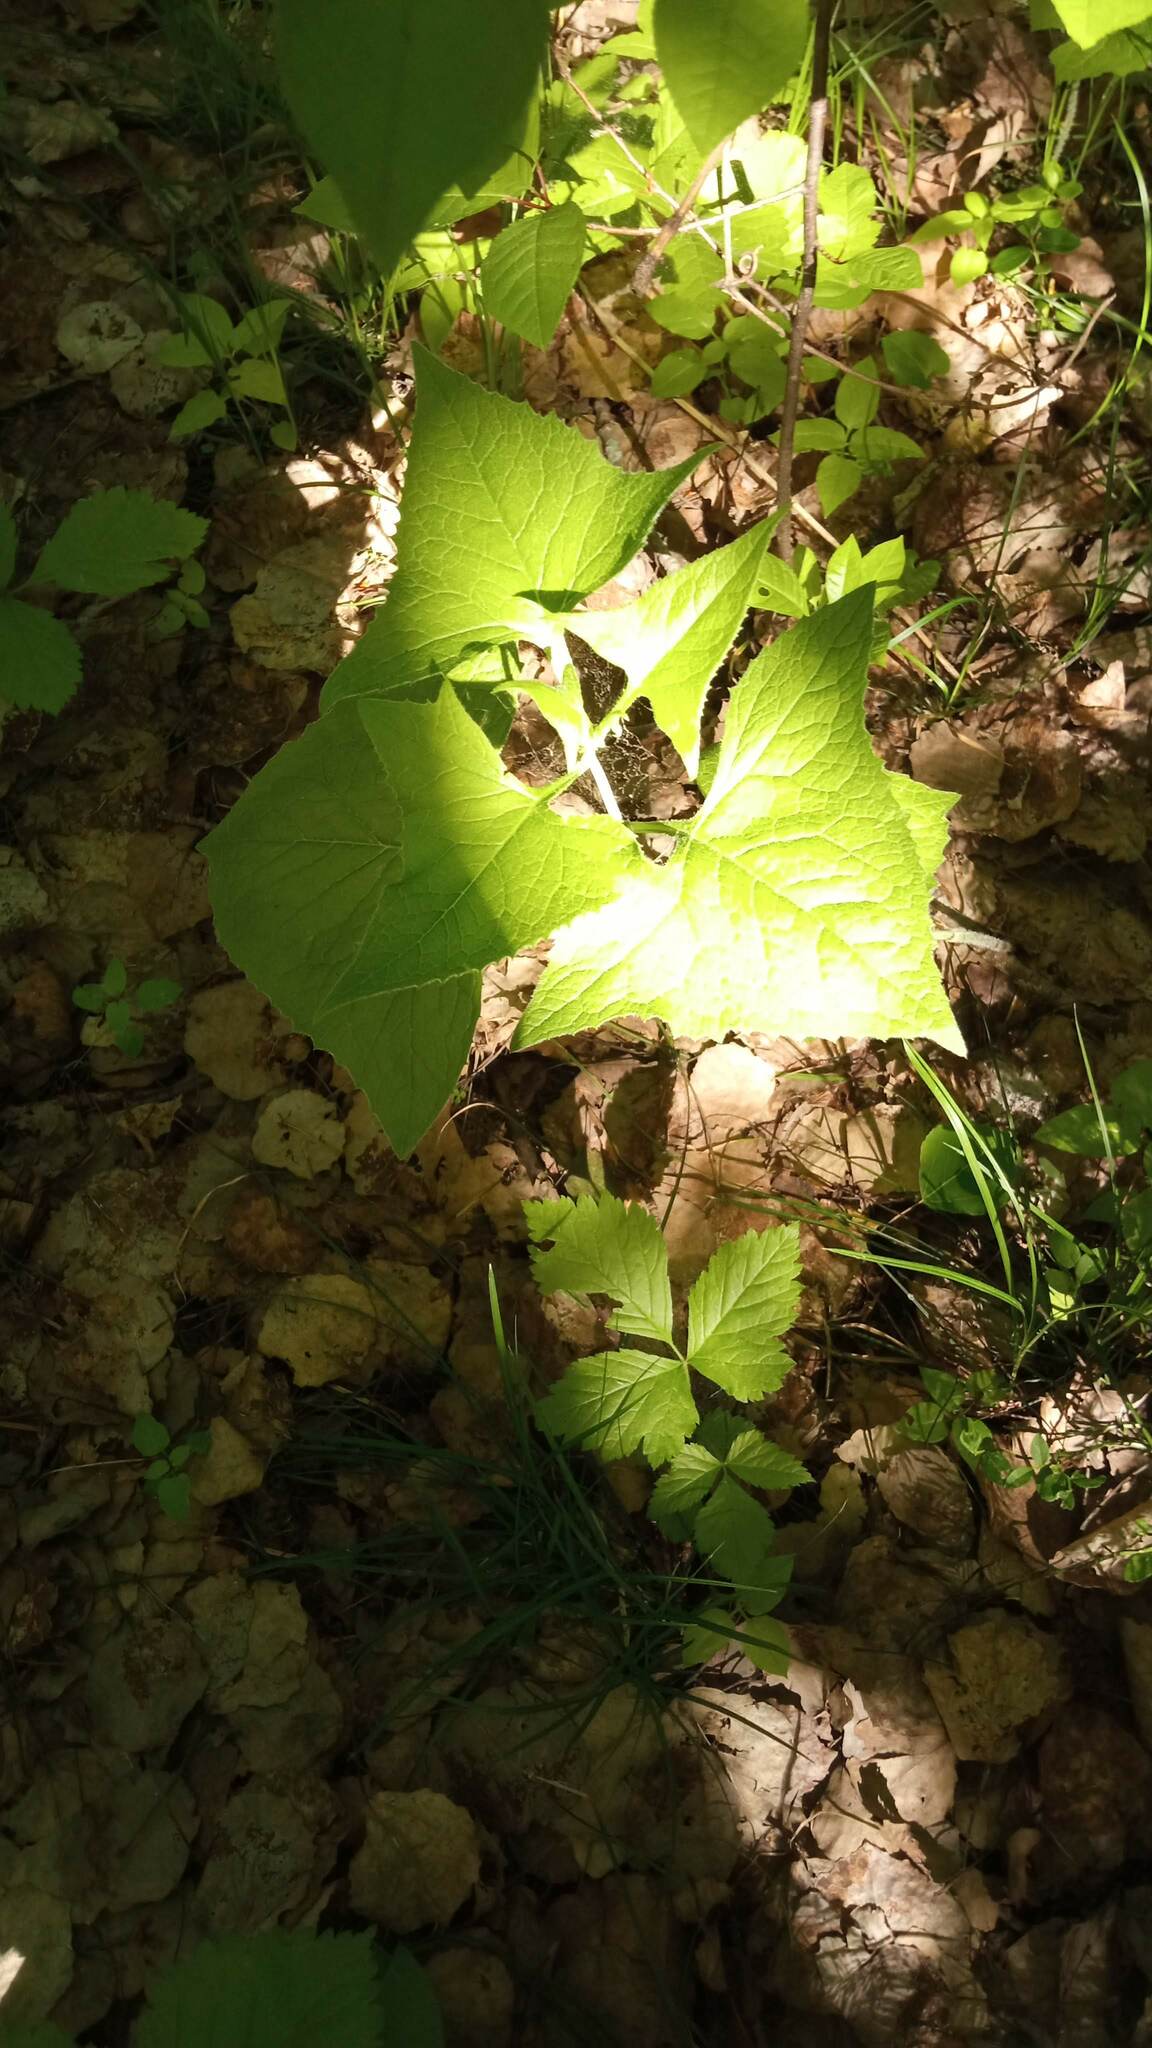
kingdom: Plantae
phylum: Tracheophyta
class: Magnoliopsida
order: Asterales
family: Asteraceae
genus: Parasenecio
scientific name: Parasenecio hastatus
